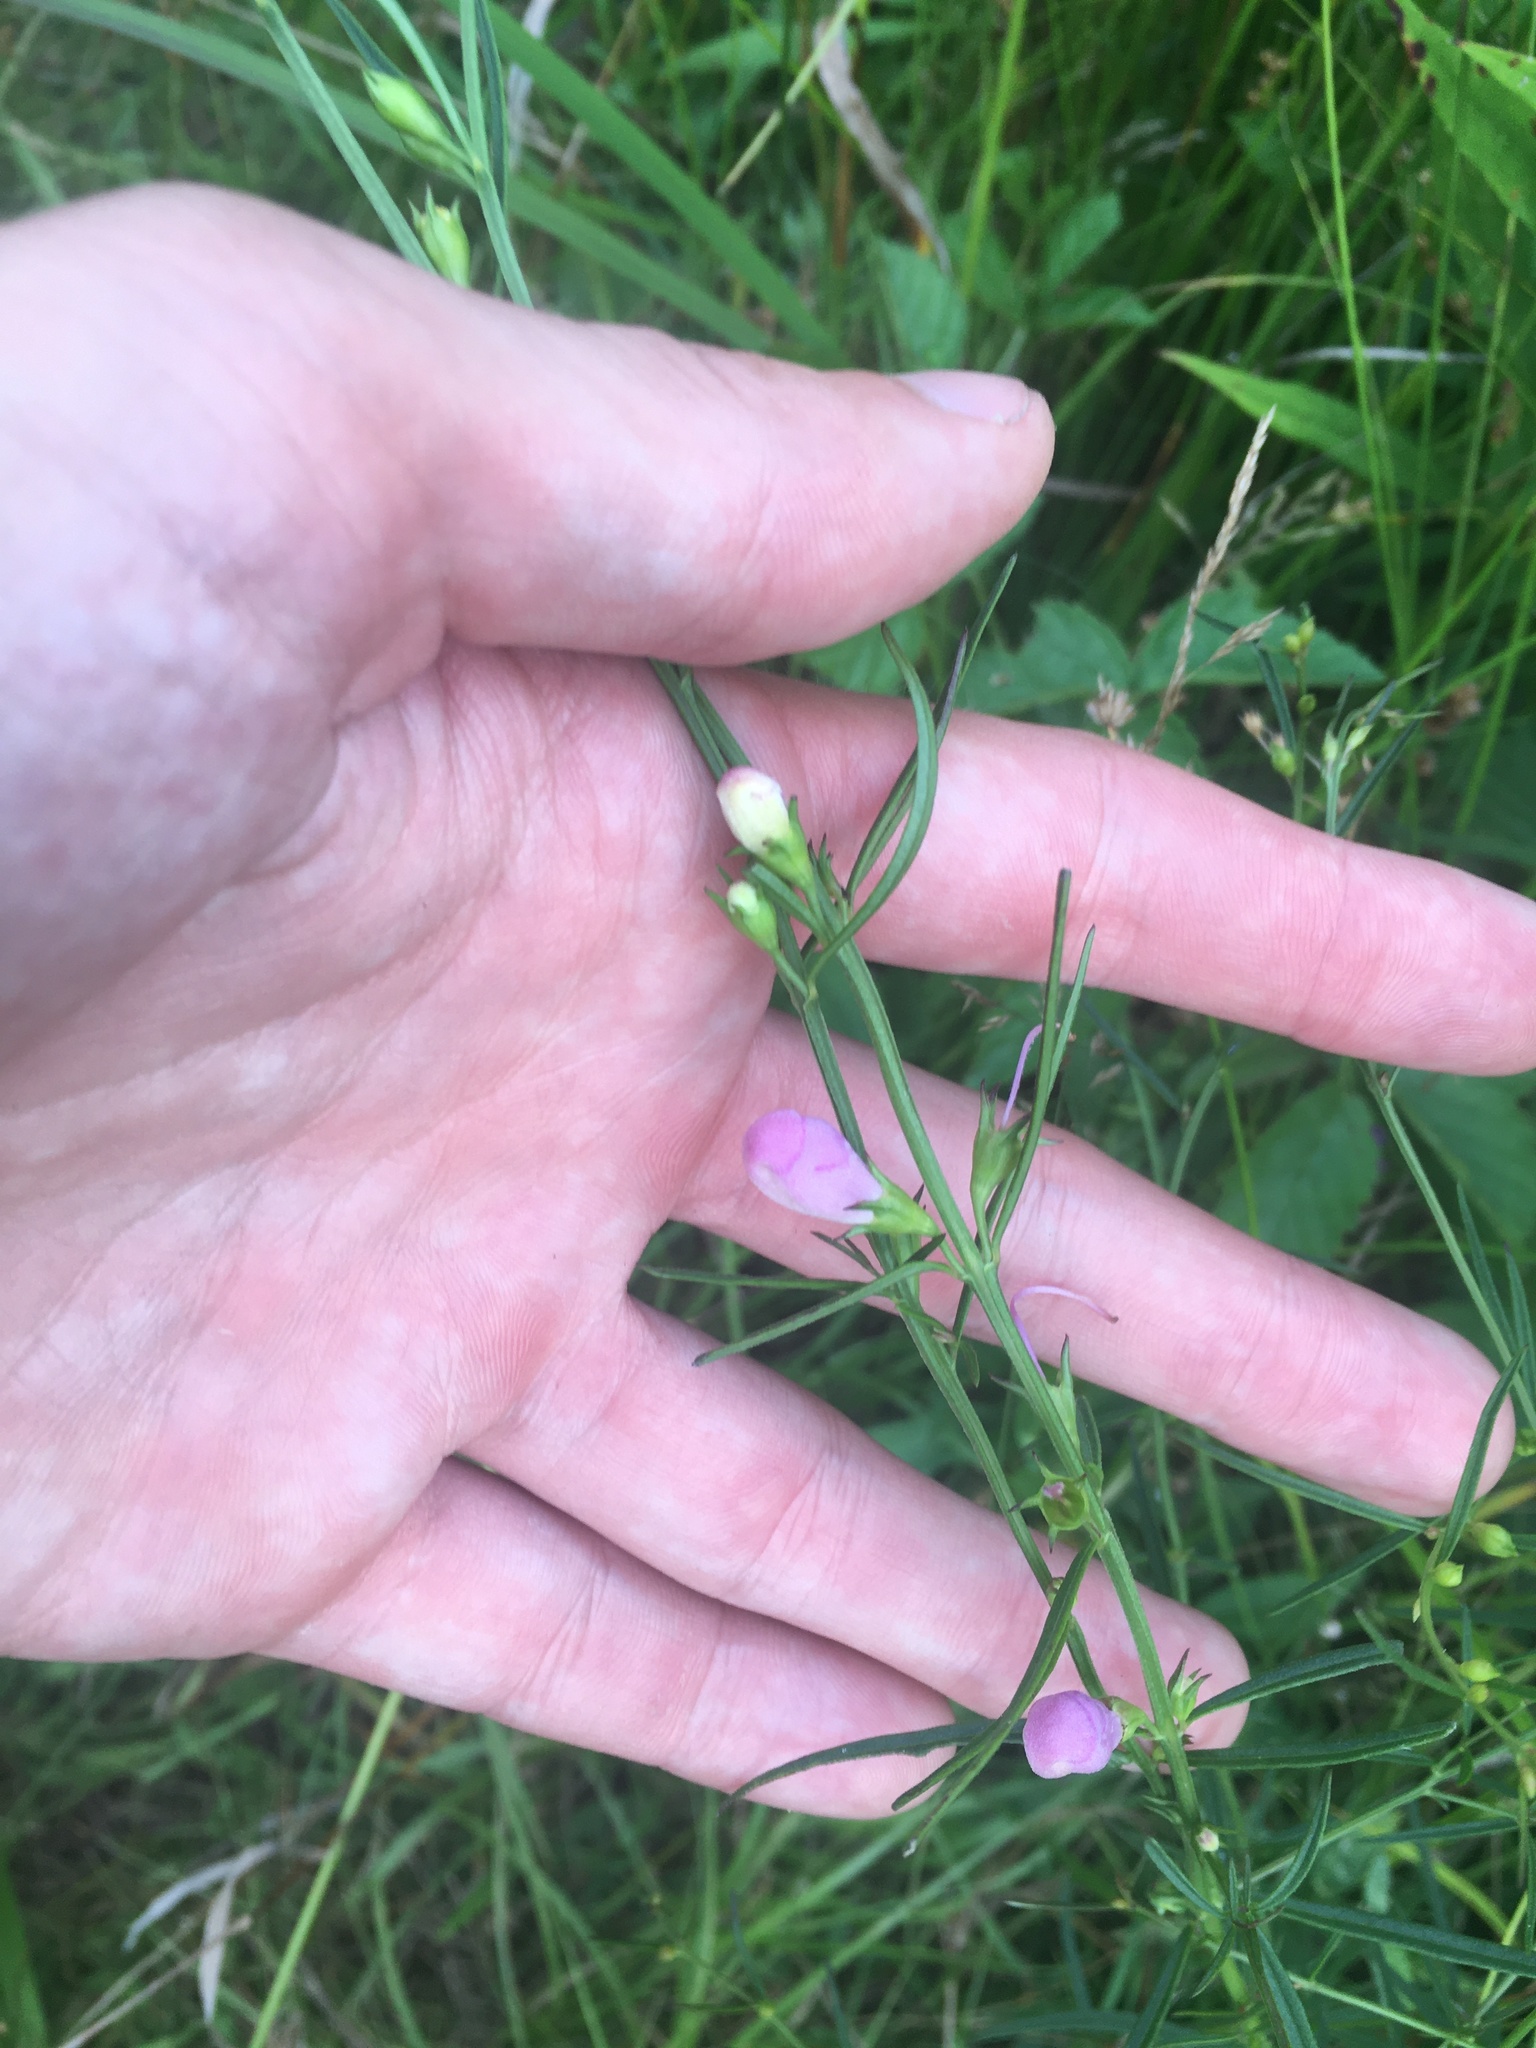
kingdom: Plantae
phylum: Tracheophyta
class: Magnoliopsida
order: Lamiales
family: Orobanchaceae
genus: Agalinis
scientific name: Agalinis purpurea
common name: Purple false foxglove
